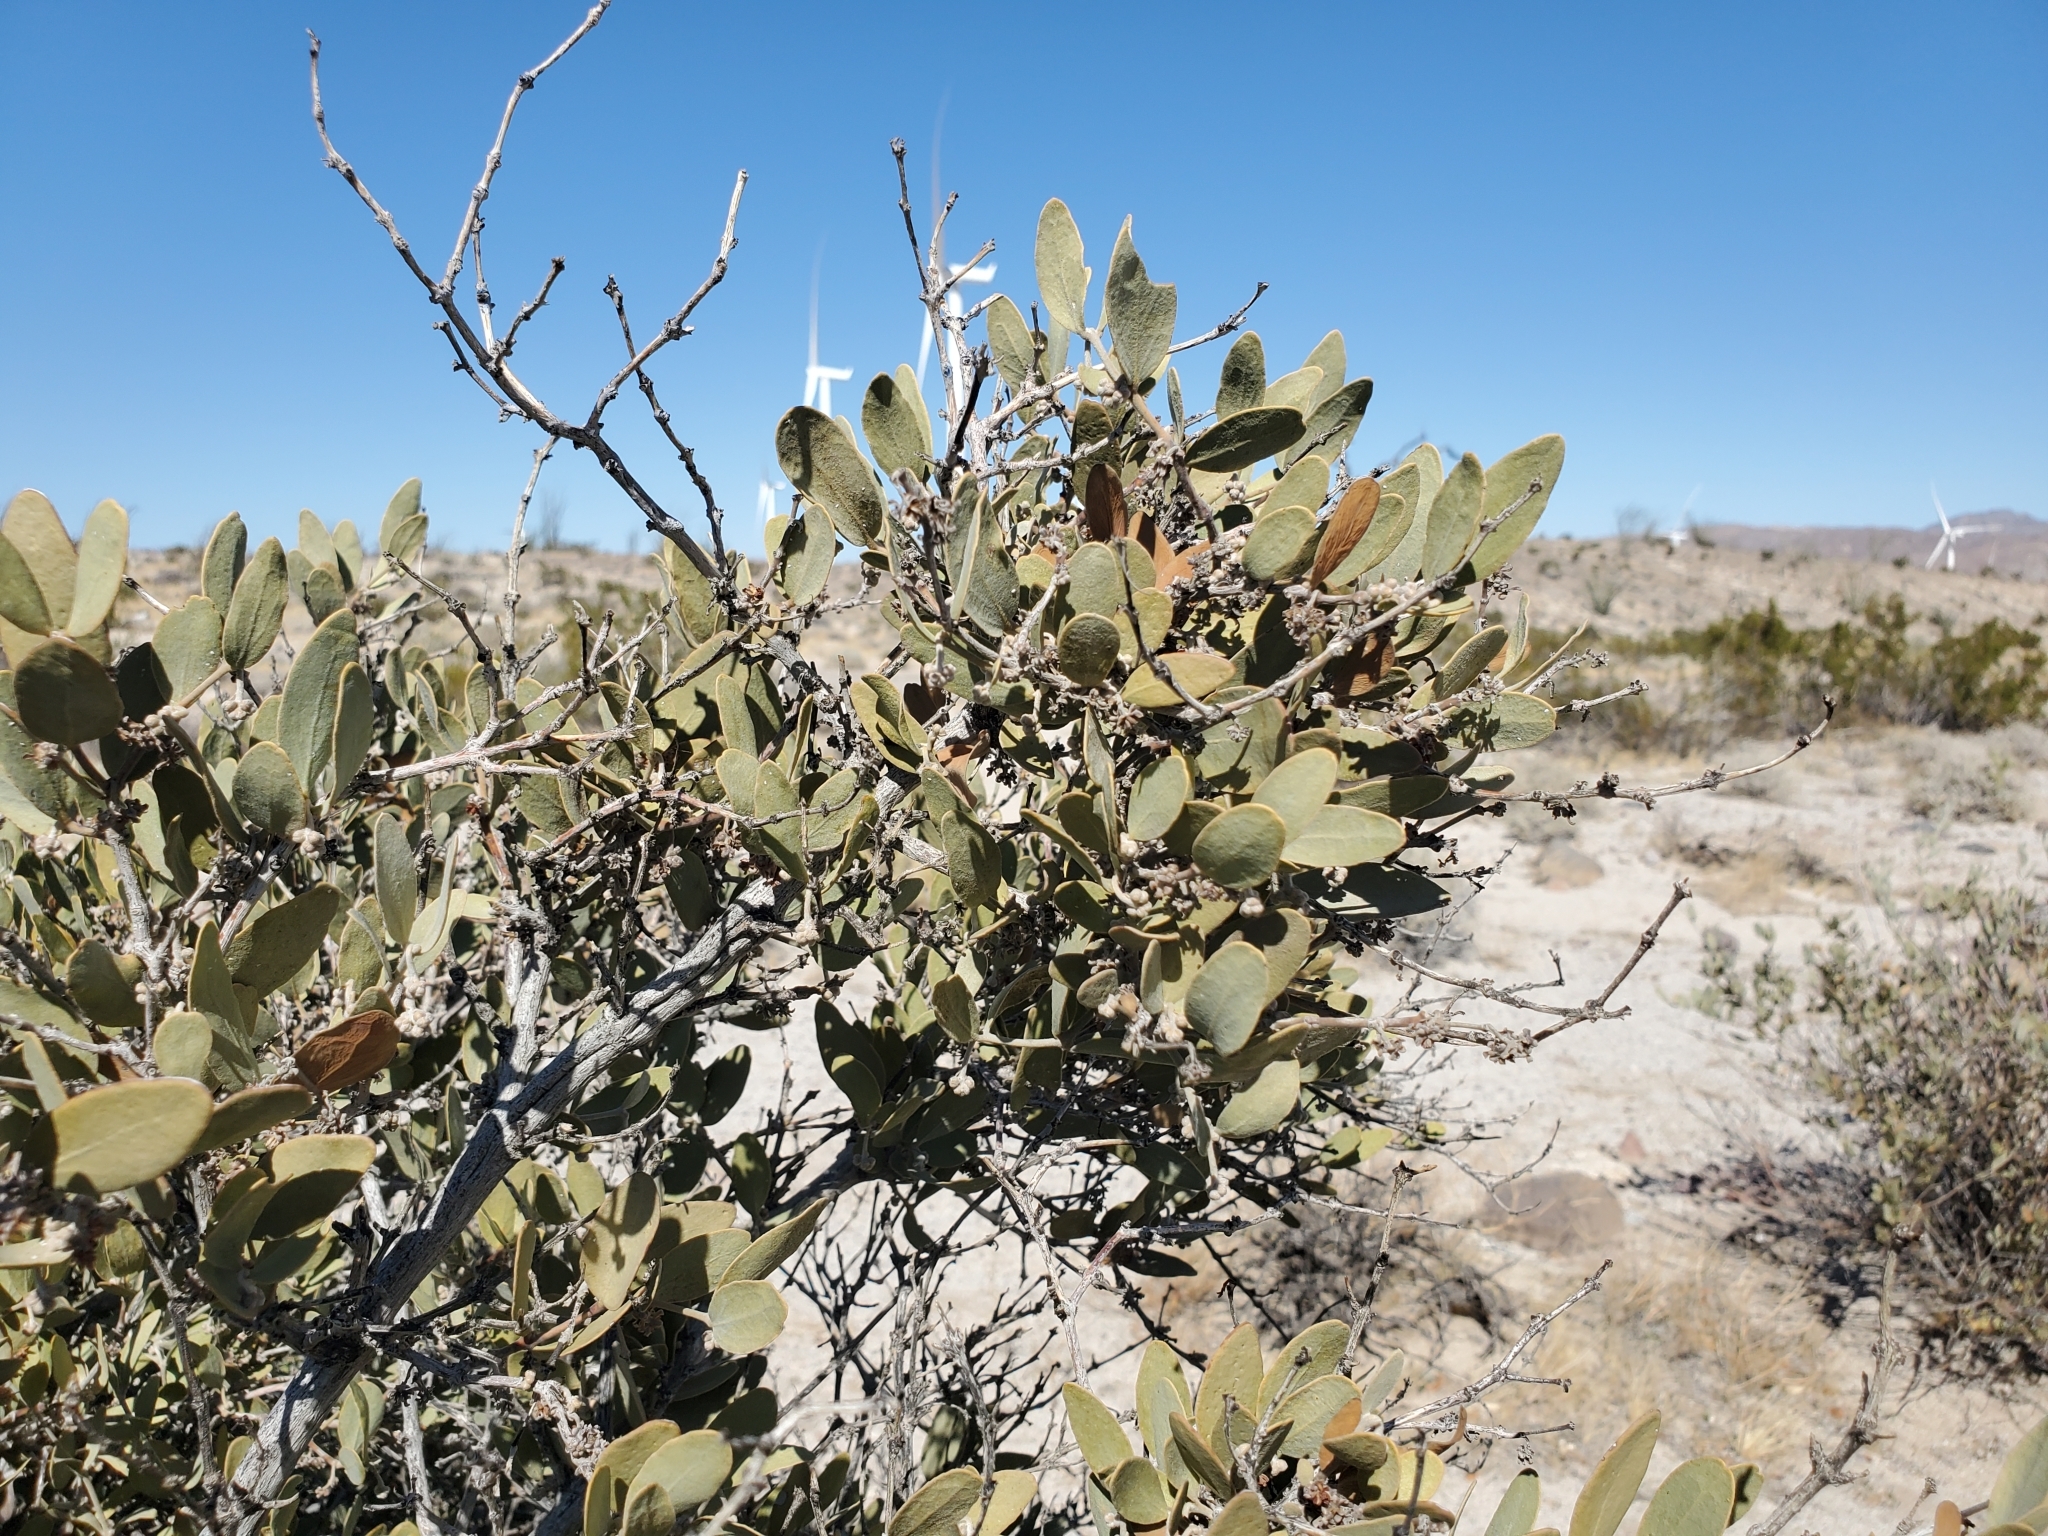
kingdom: Plantae
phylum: Tracheophyta
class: Magnoliopsida
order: Caryophyllales
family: Simmondsiaceae
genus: Simmondsia
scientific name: Simmondsia chinensis
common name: Jojoba
